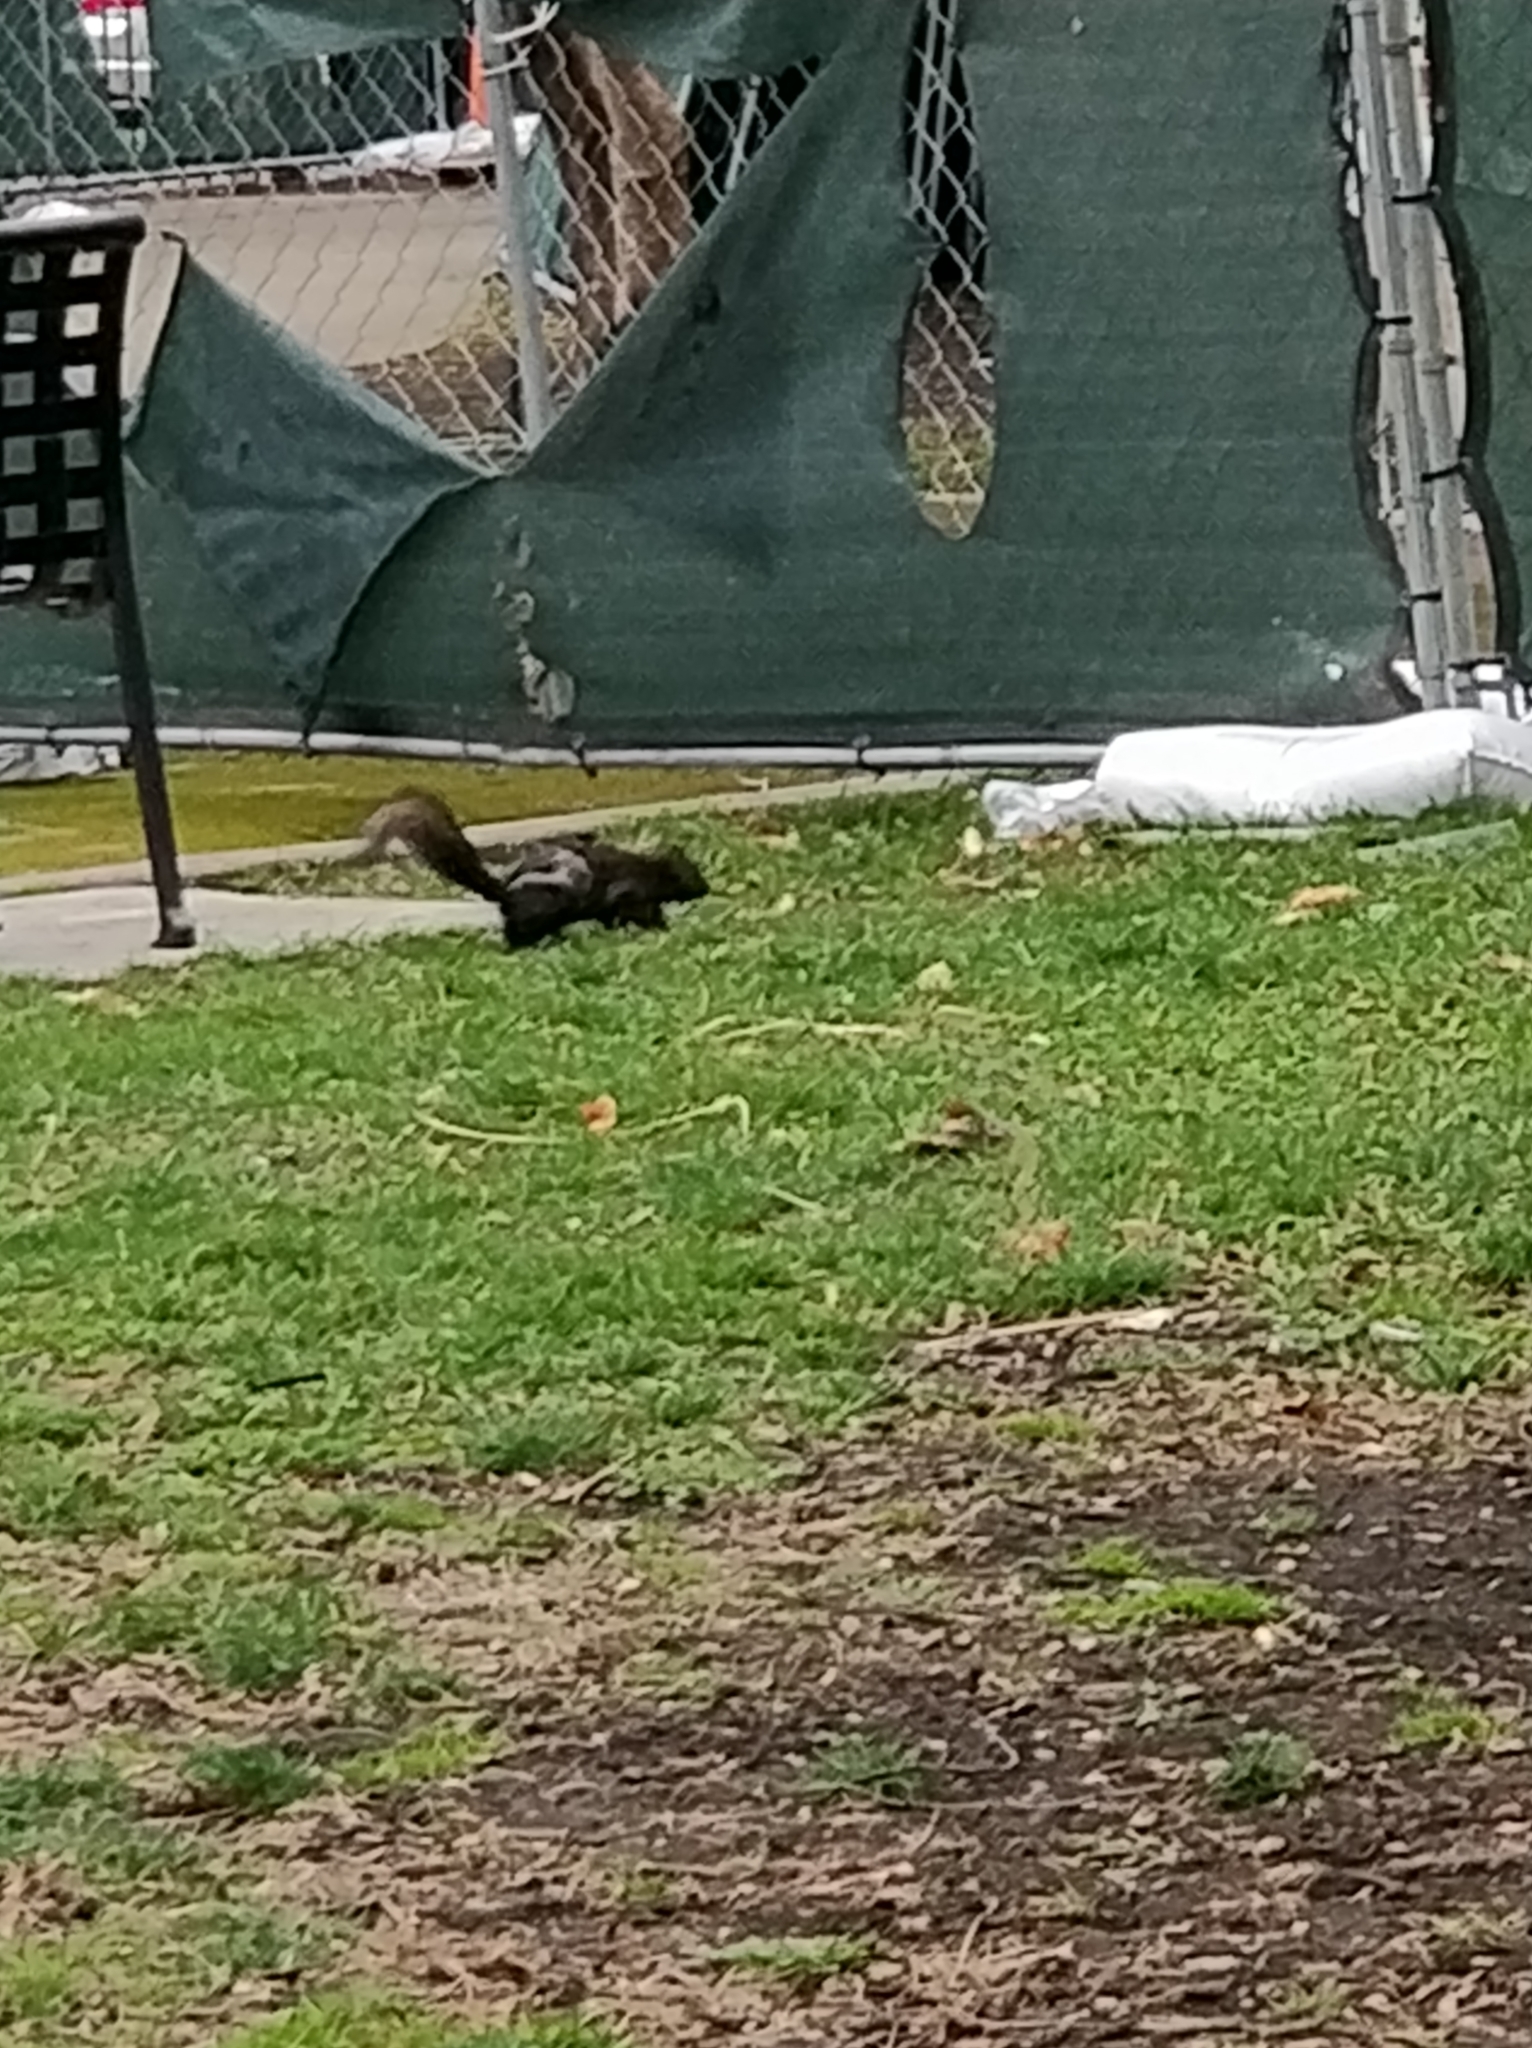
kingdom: Animalia
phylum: Chordata
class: Mammalia
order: Rodentia
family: Sciuridae
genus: Sciurus
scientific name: Sciurus carolinensis
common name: Eastern gray squirrel
